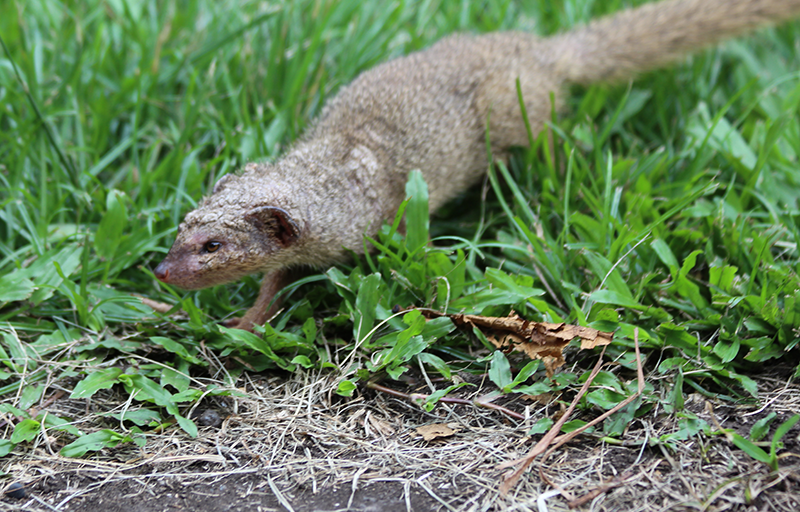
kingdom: Animalia
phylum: Chordata
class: Mammalia
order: Carnivora
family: Herpestidae
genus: Herpestes
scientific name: Herpestes javanicus
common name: Small asian mongoose
